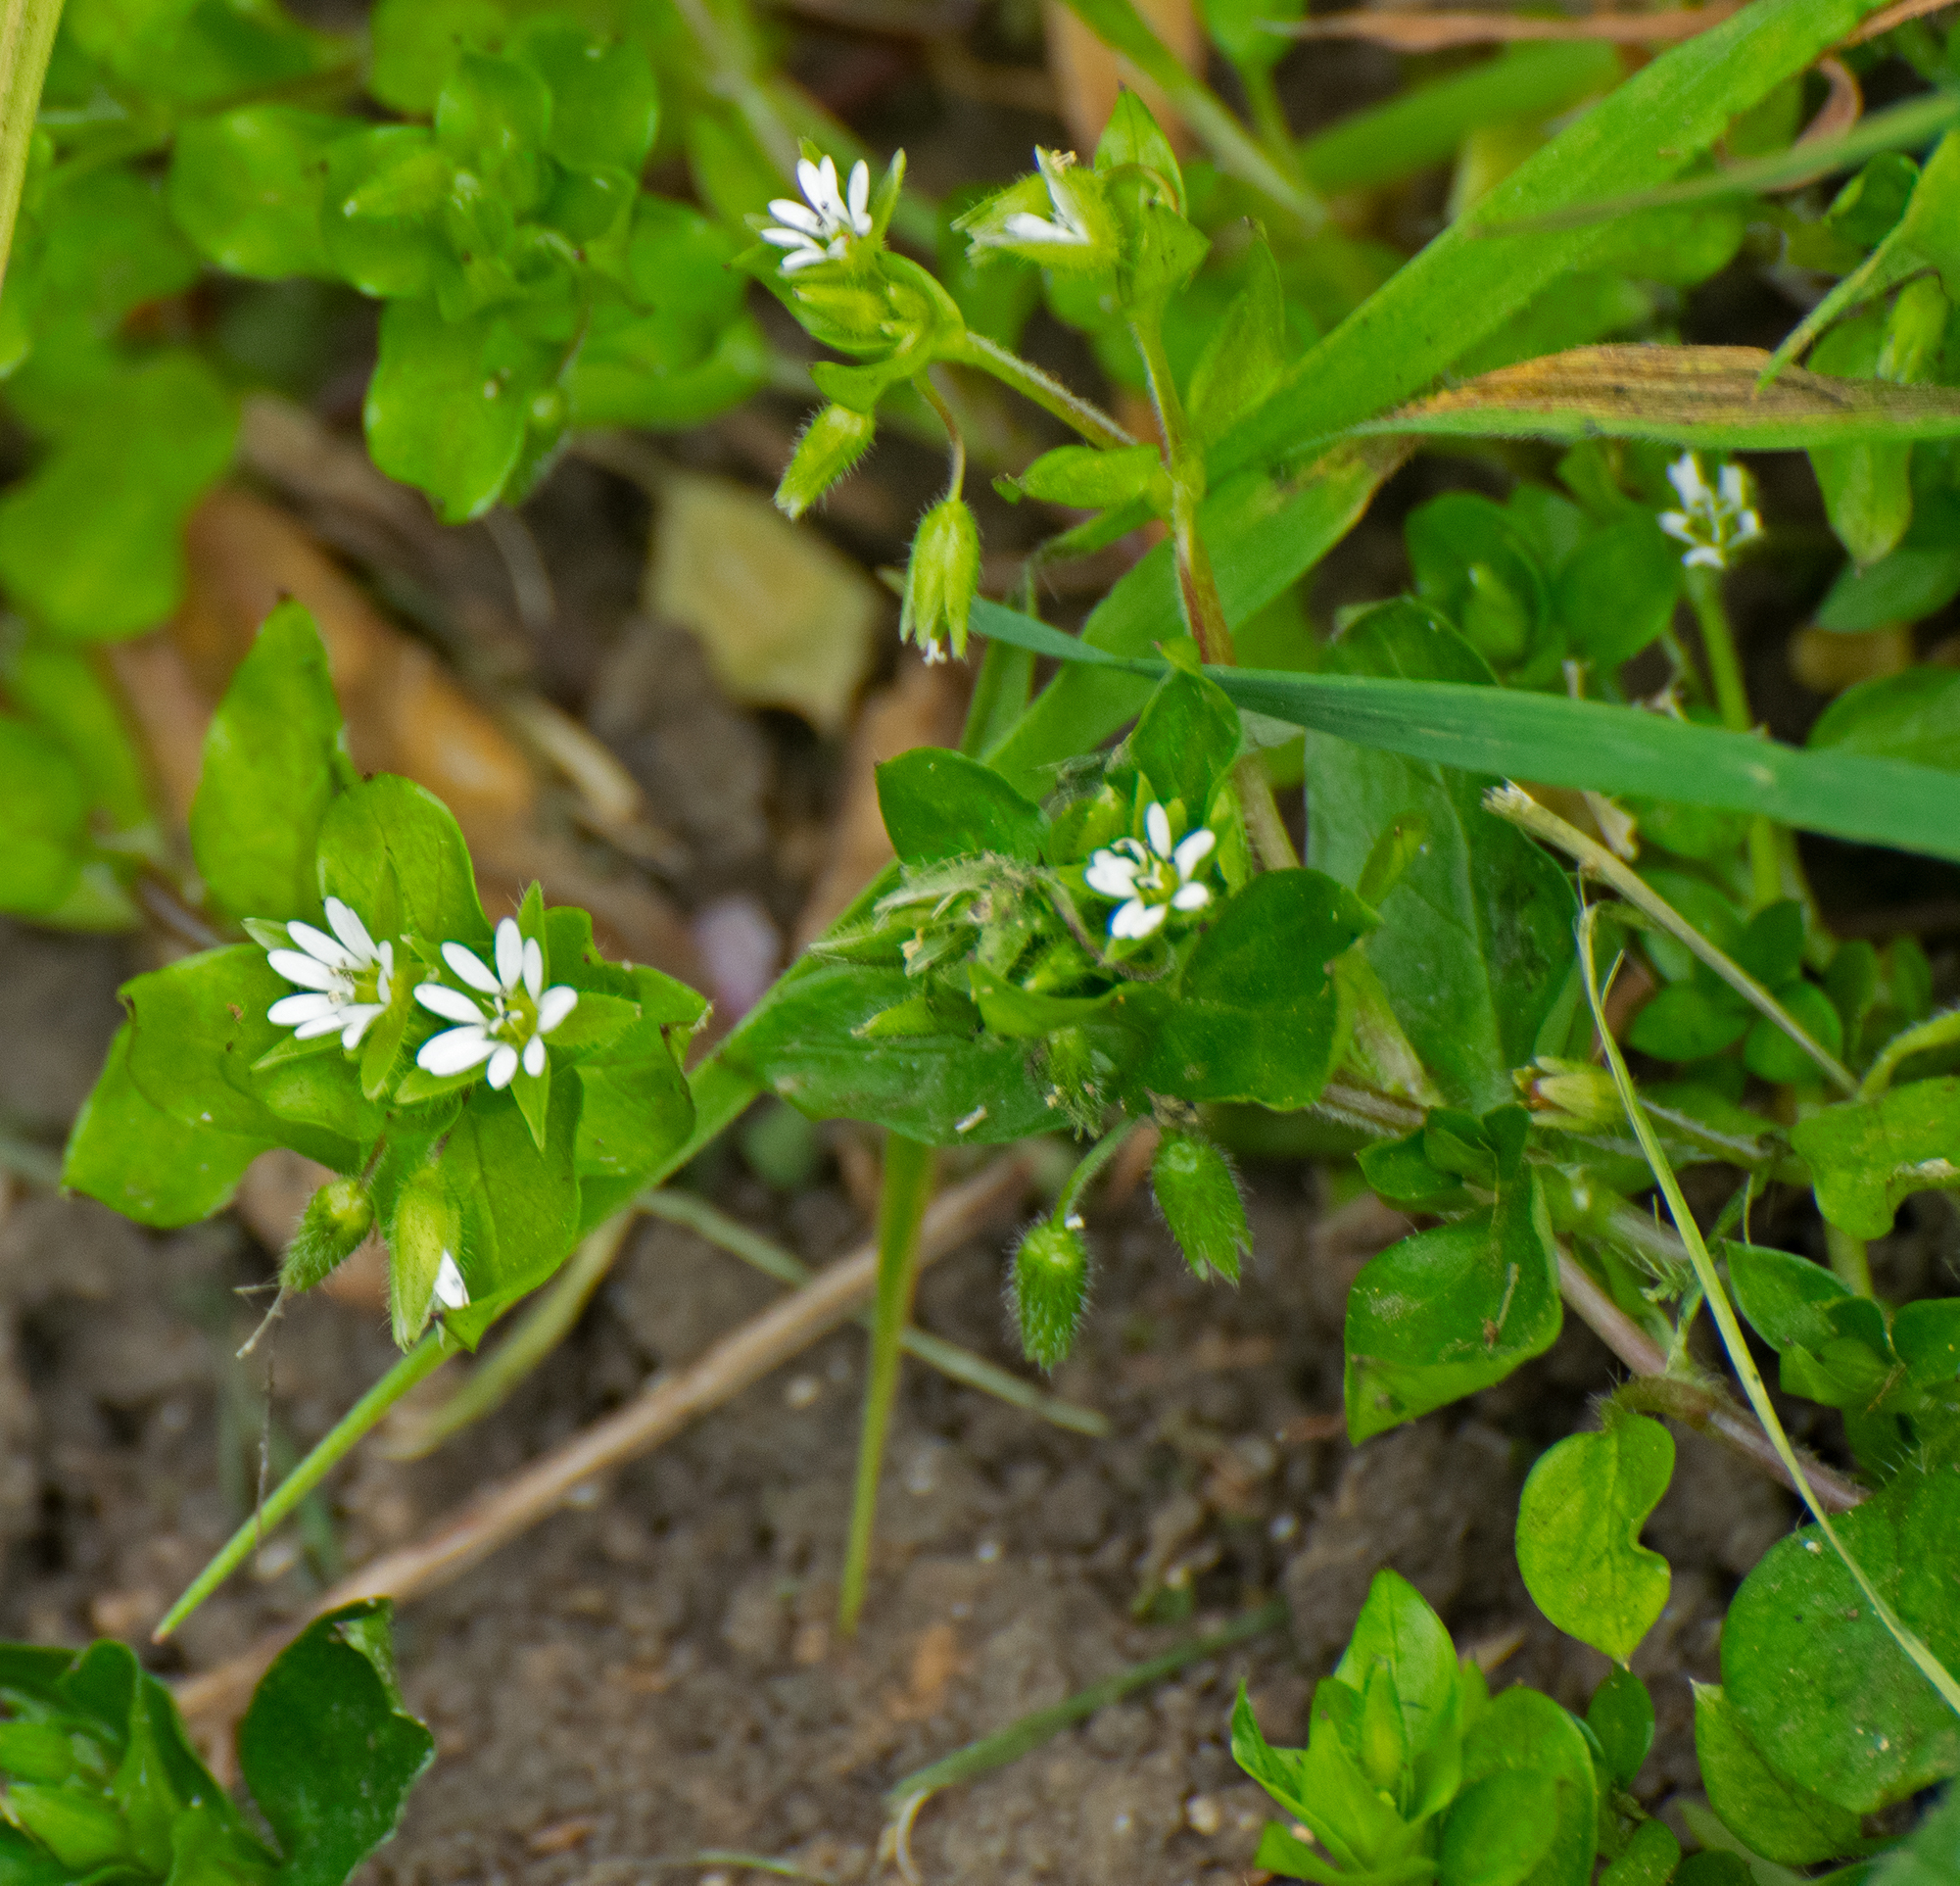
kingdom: Plantae
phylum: Tracheophyta
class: Magnoliopsida
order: Caryophyllales
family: Caryophyllaceae
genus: Stellaria
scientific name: Stellaria media
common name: Common chickweed
